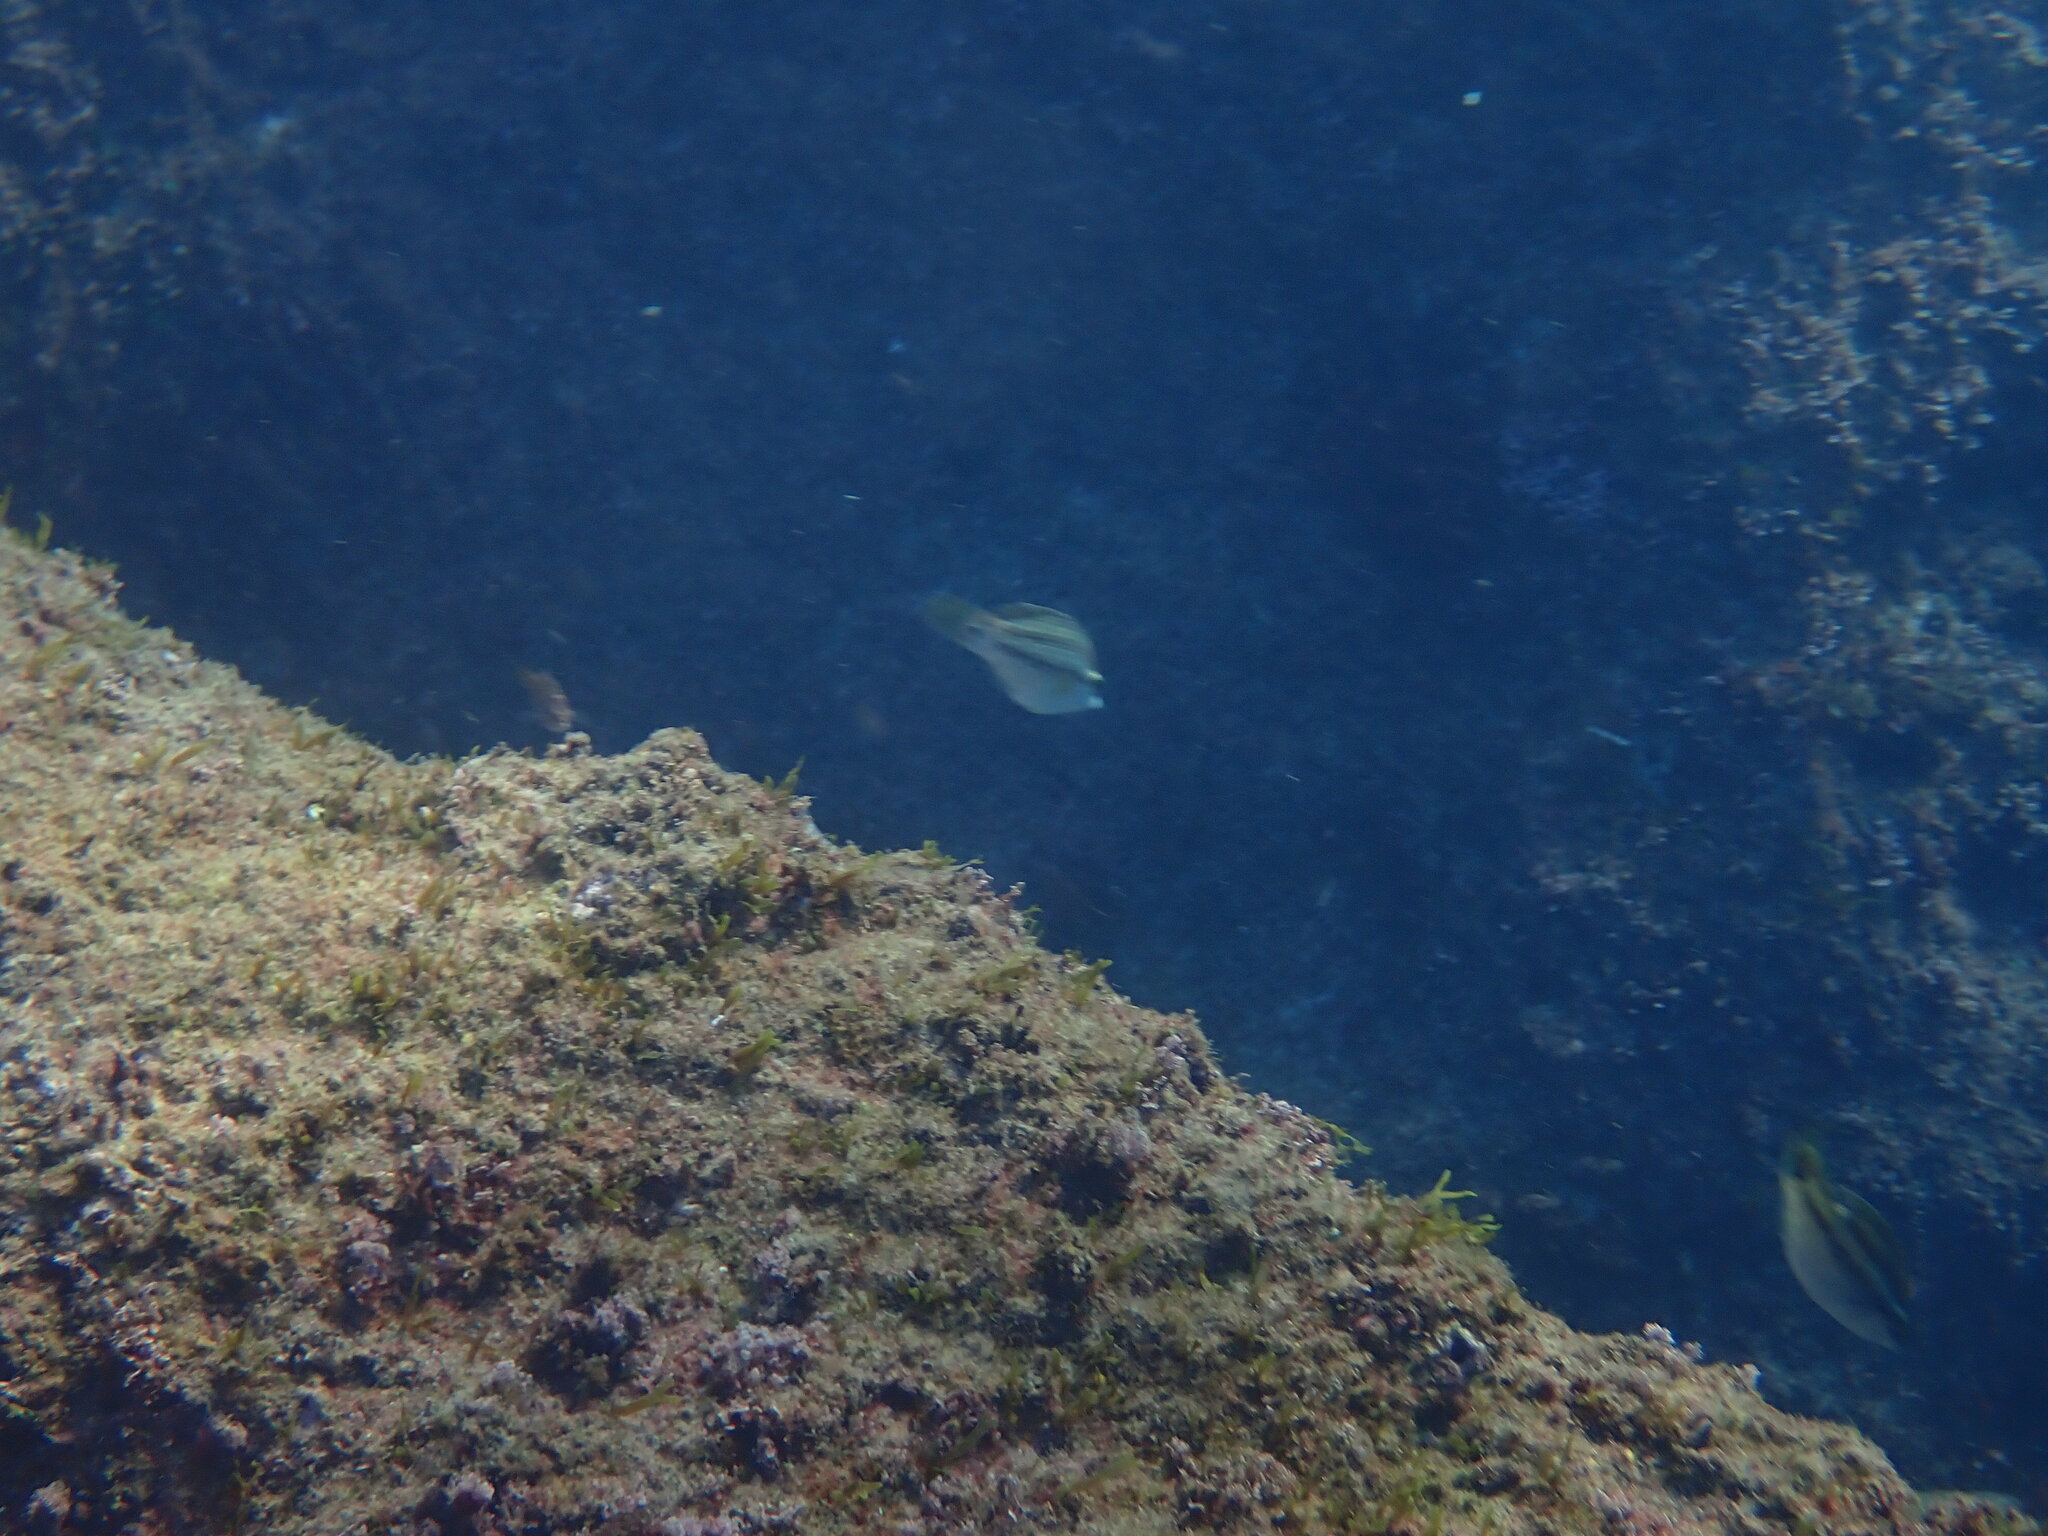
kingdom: Animalia
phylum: Chordata
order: Perciformes
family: Labridae
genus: Symphodus
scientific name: Symphodus tinca
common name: Peacock wrasse
